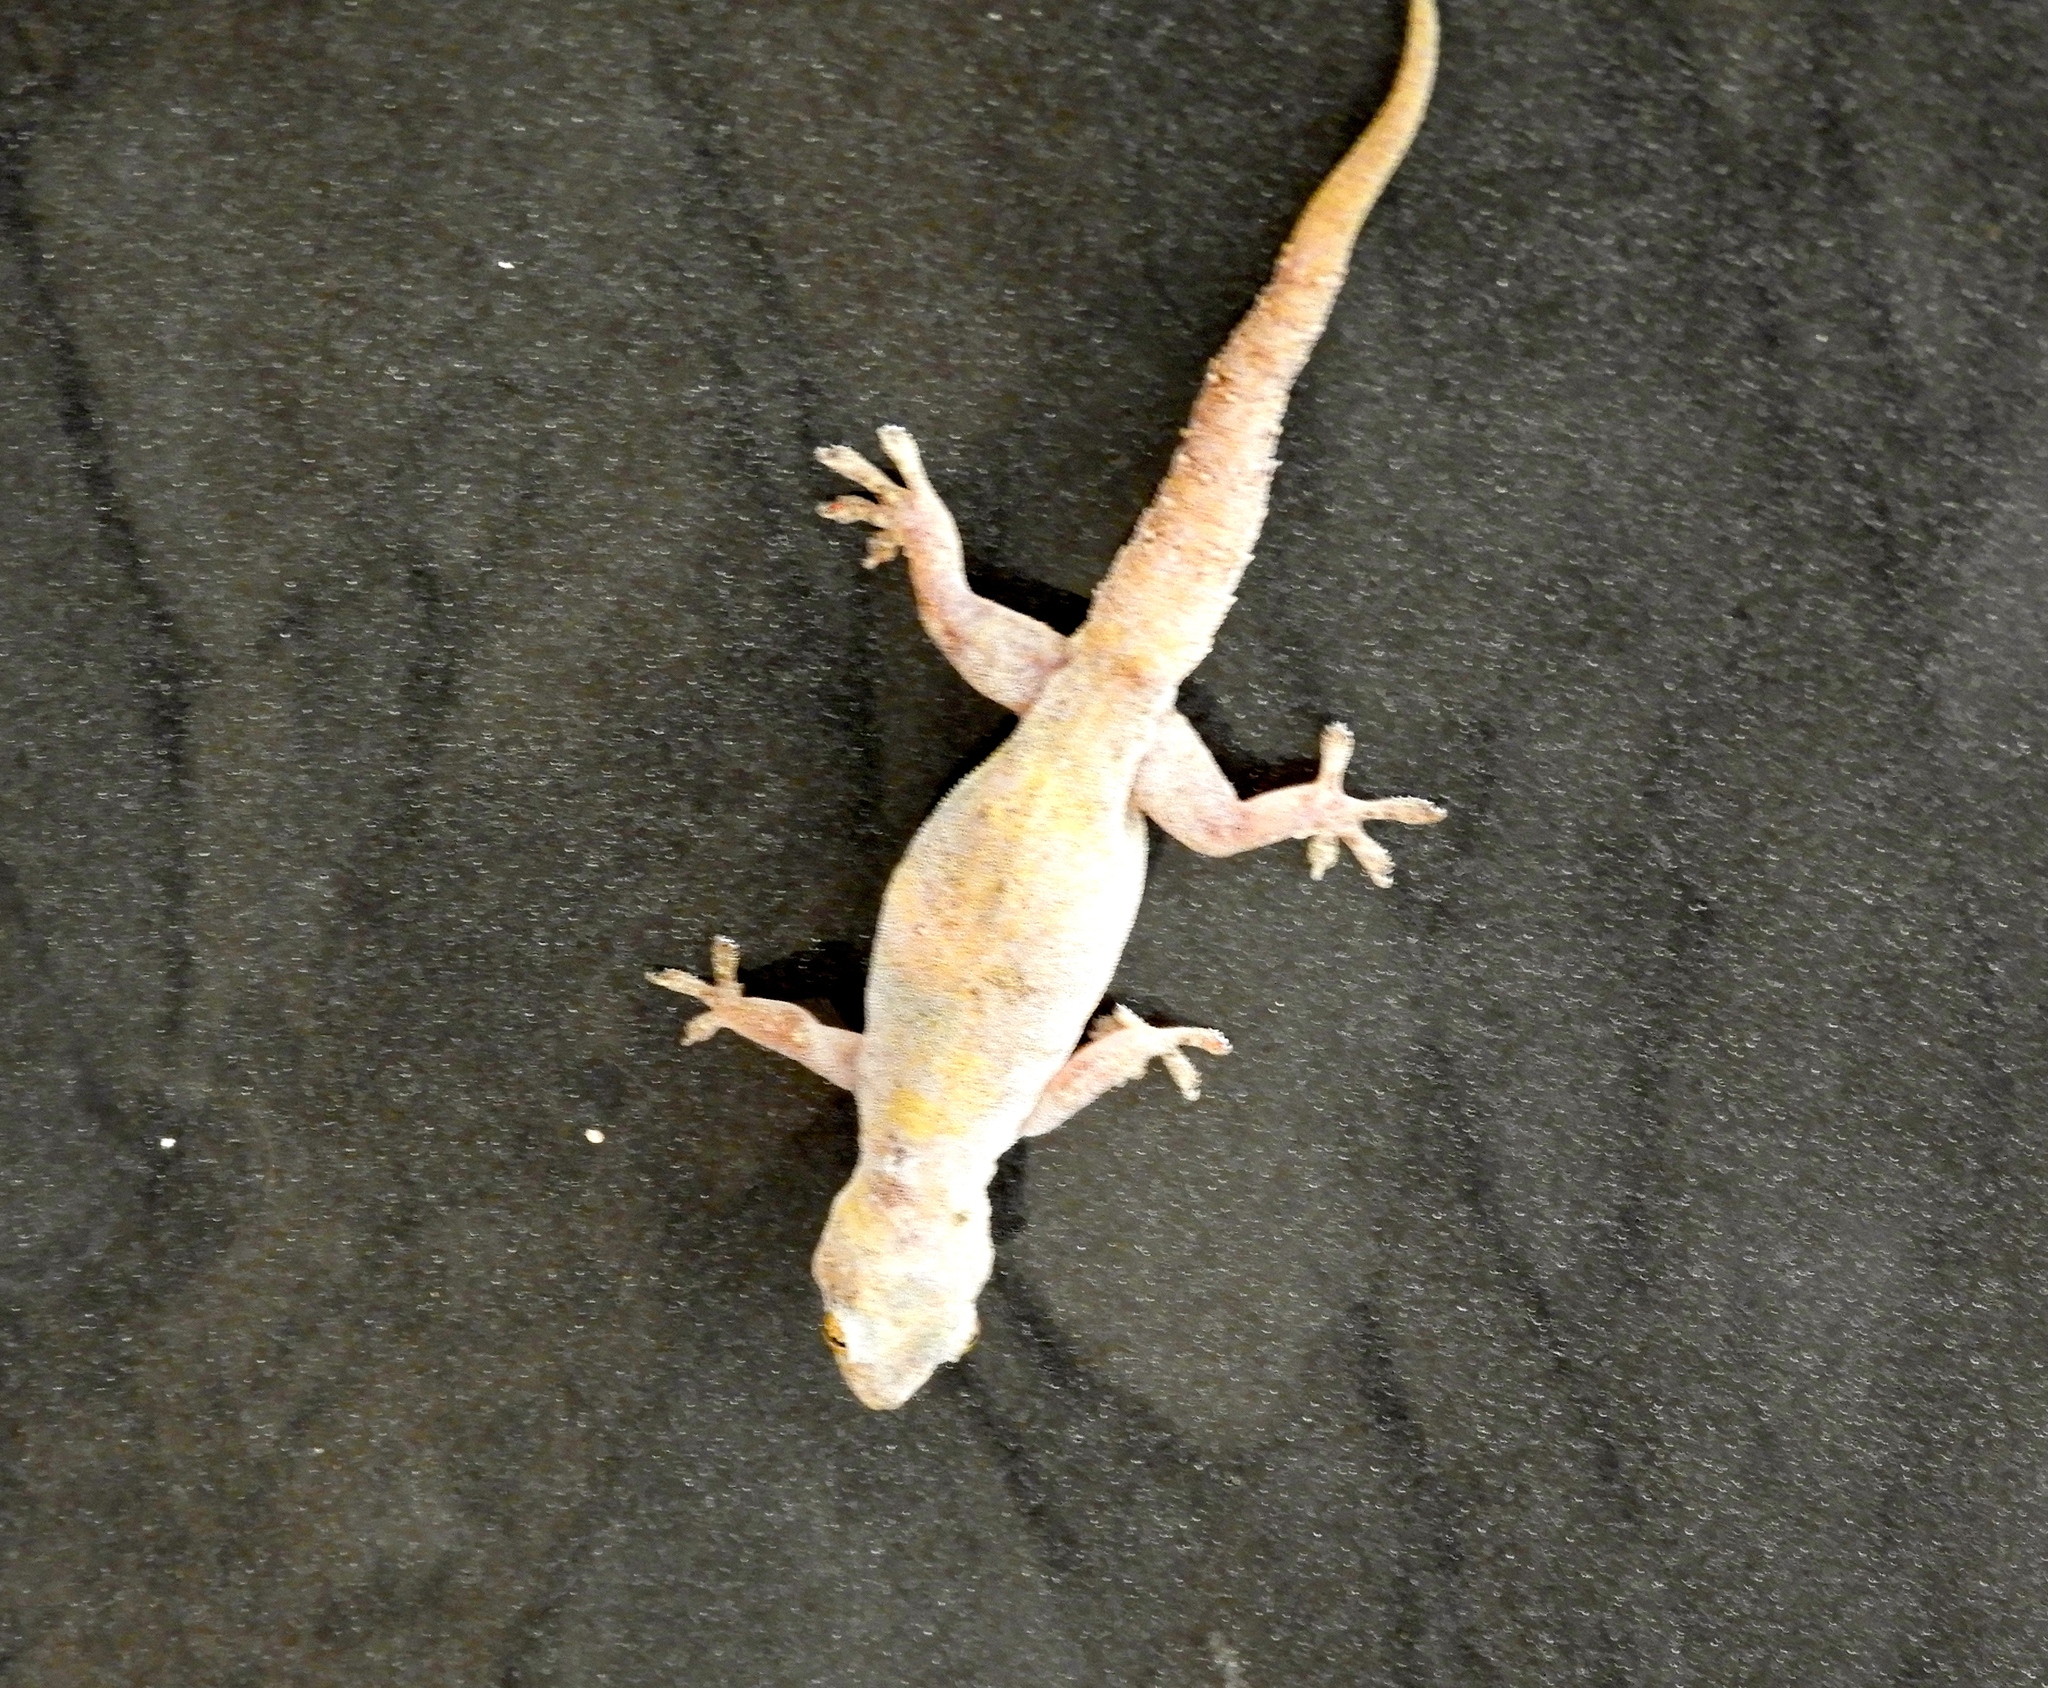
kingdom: Animalia
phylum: Chordata
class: Squamata
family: Gekkonidae
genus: Hemidactylus
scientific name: Hemidactylus frenatus
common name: Common house gecko
